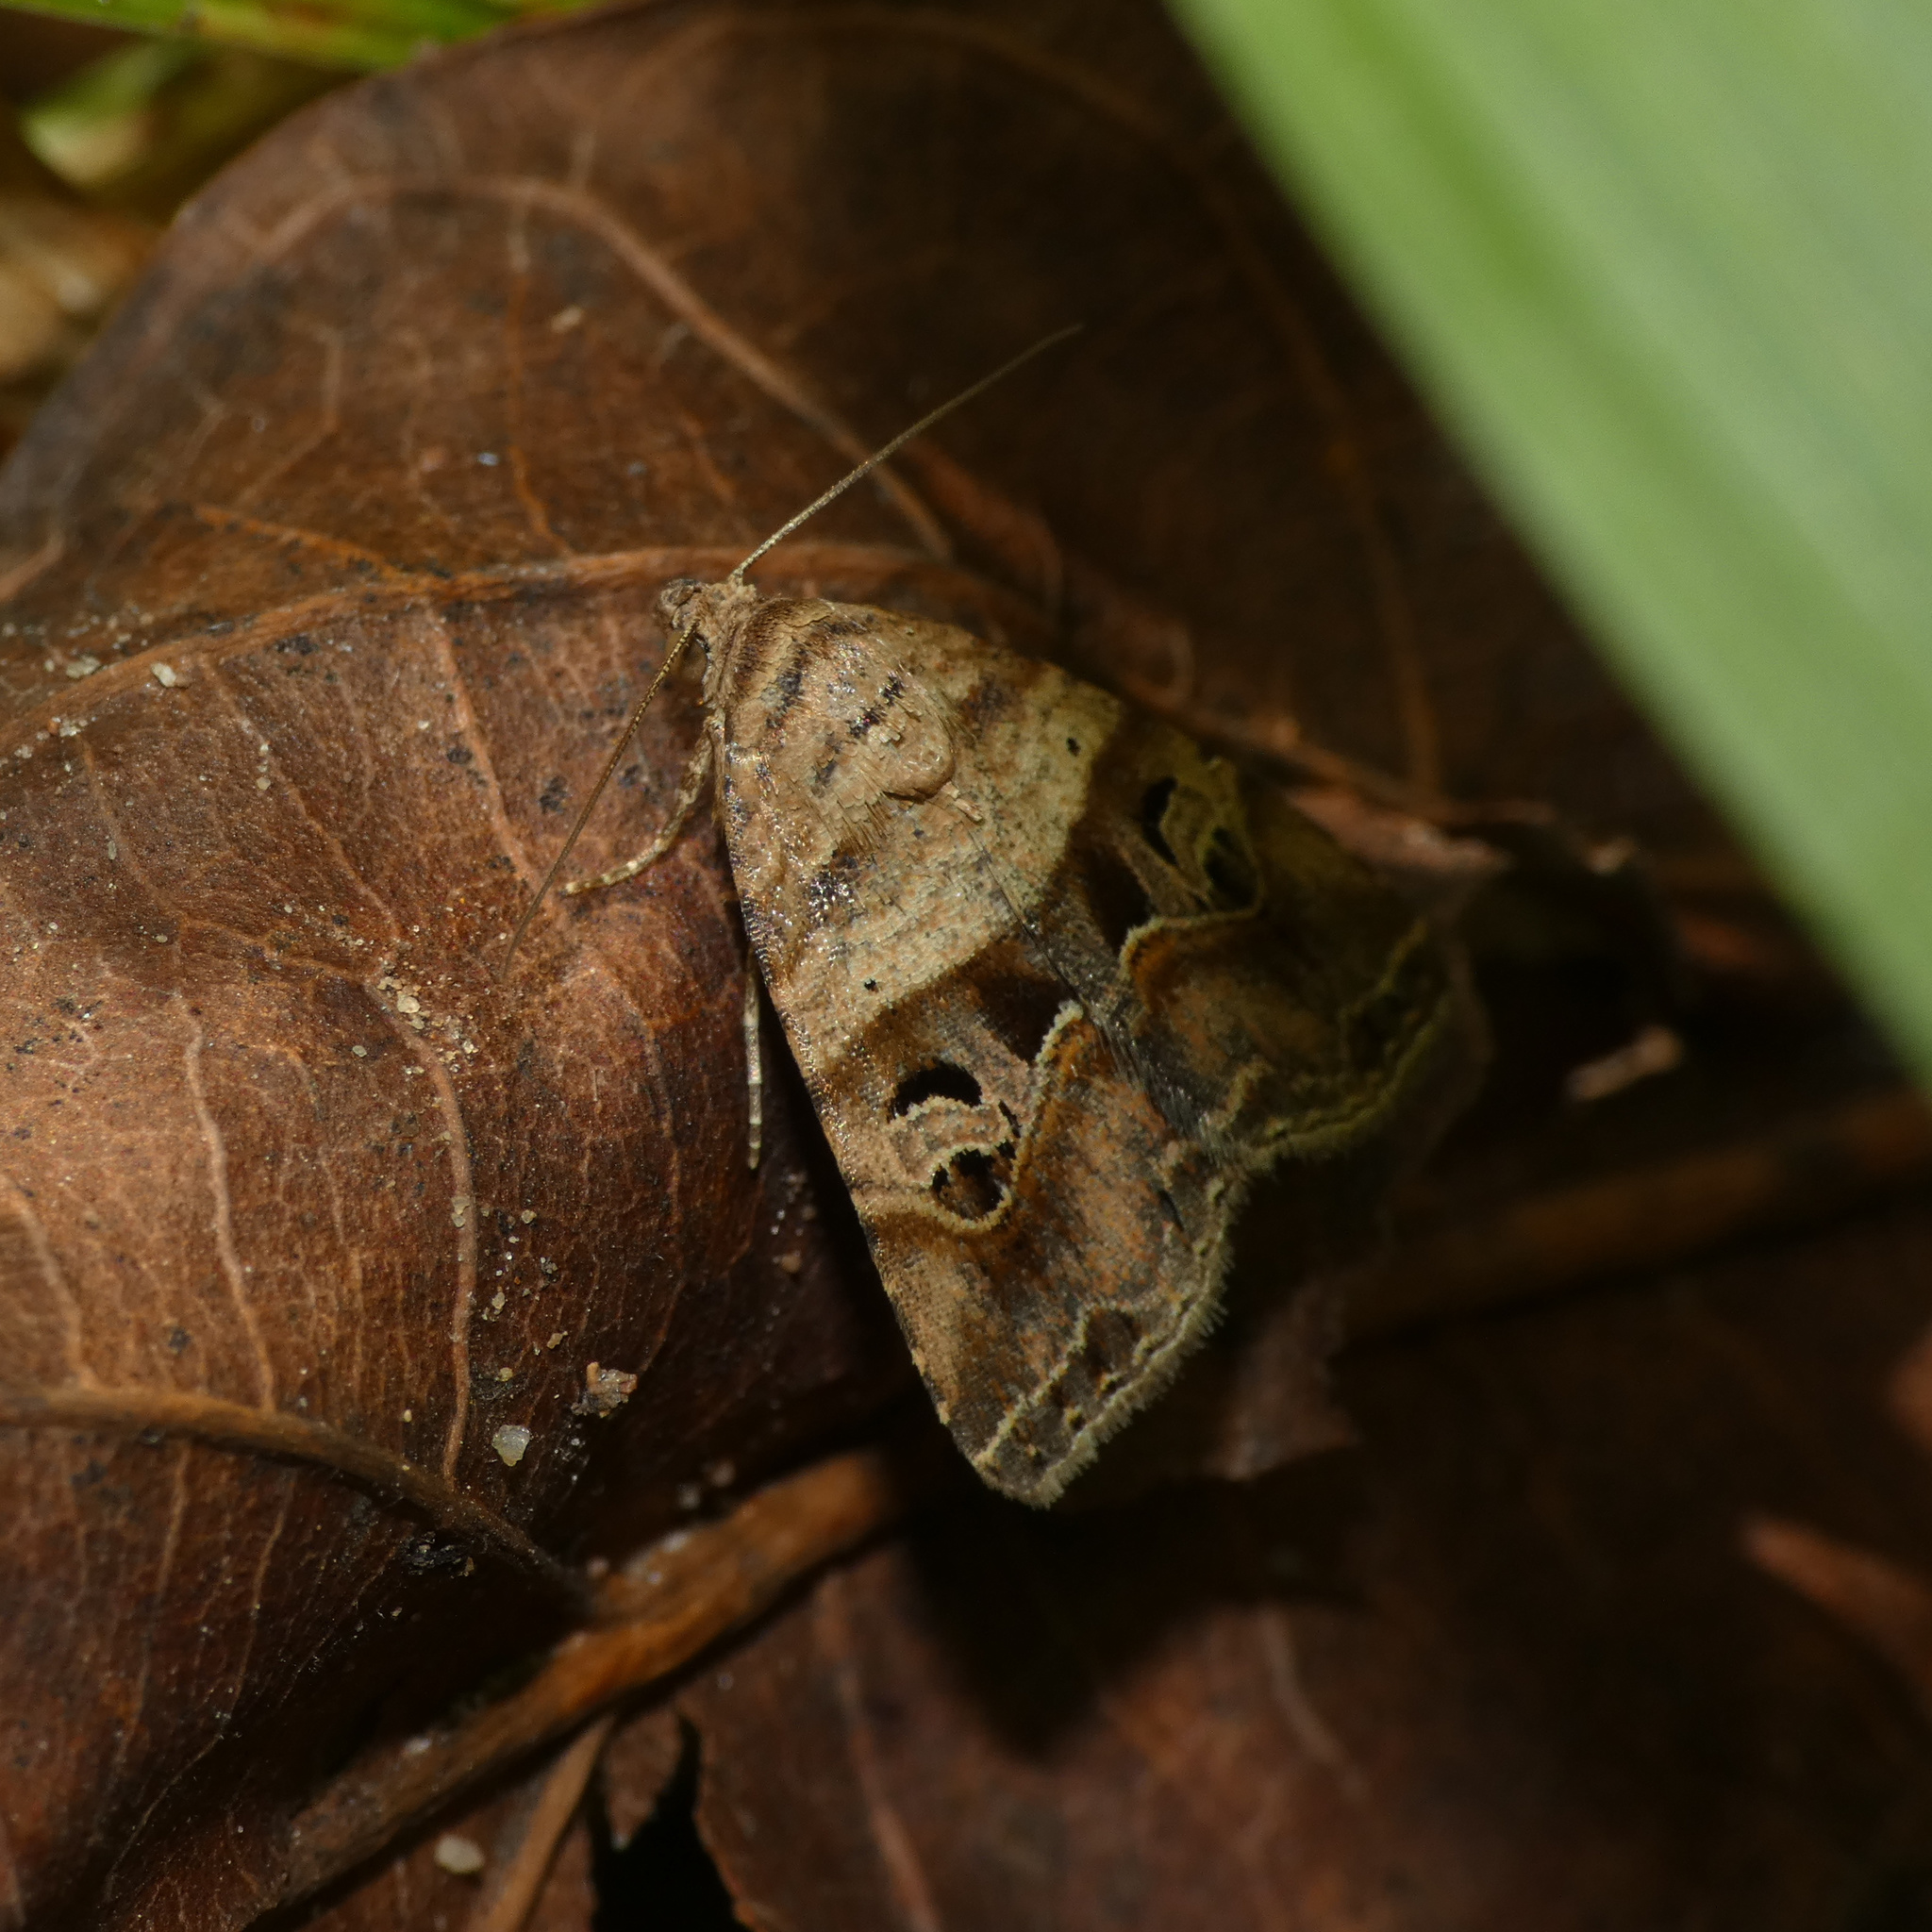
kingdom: Animalia
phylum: Arthropoda
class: Insecta
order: Lepidoptera
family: Noctuidae
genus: Ozarba
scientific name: Ozarba corniculans
